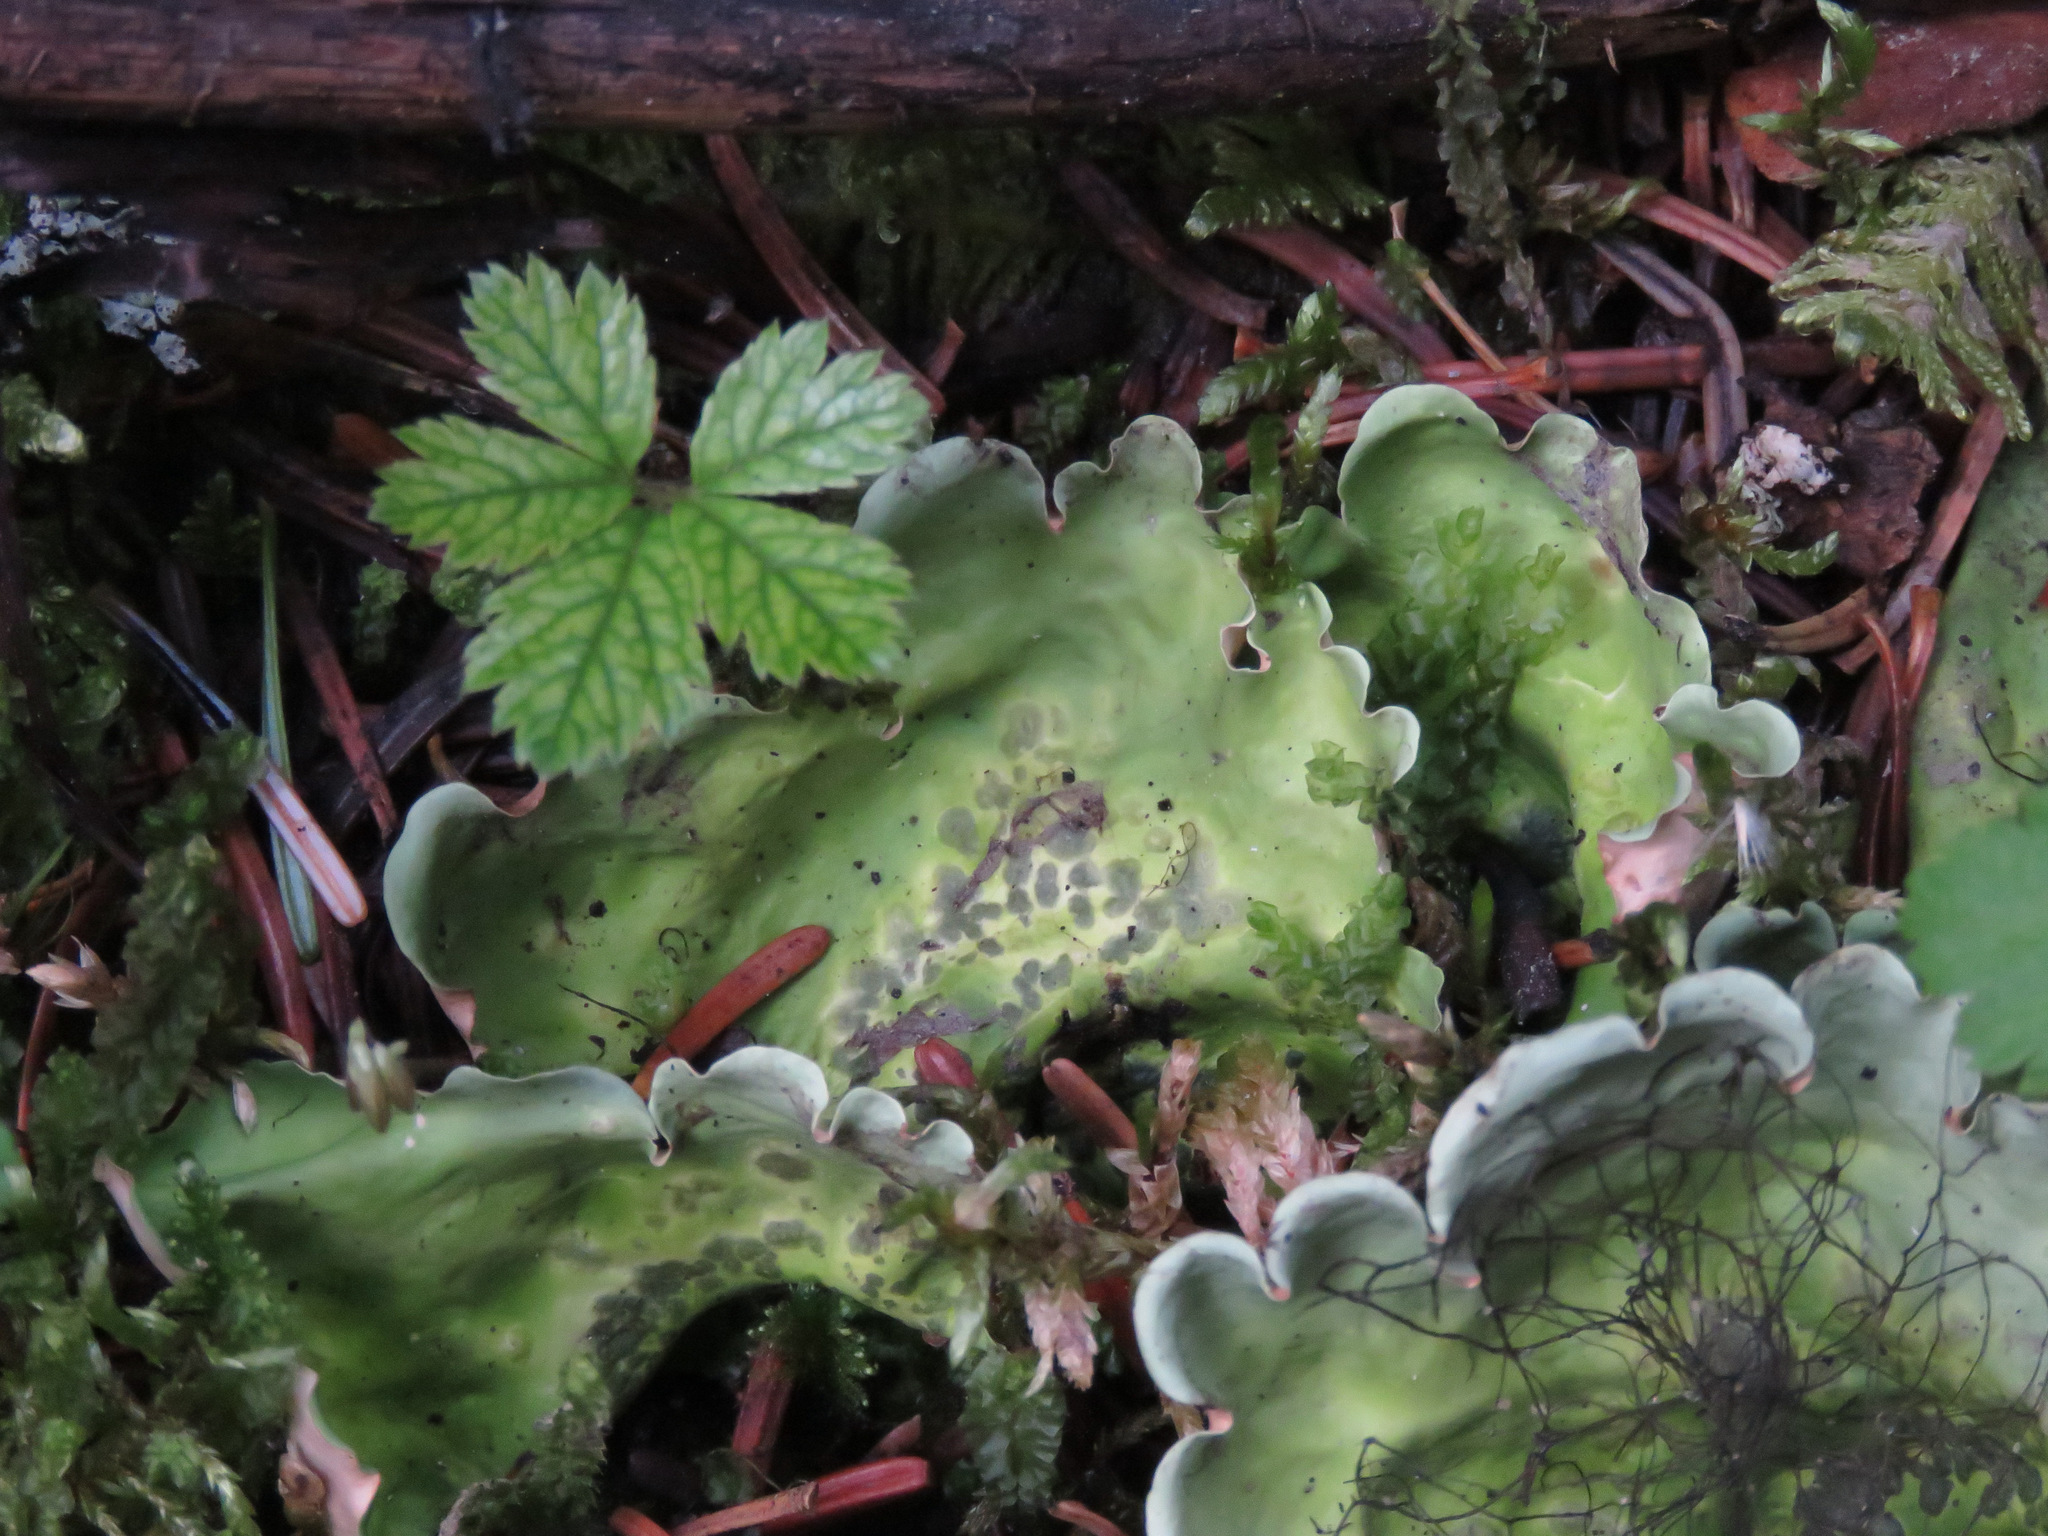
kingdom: Fungi
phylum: Ascomycota
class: Lecanoromycetes
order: Peltigerales
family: Nephromataceae
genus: Nephroma
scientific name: Nephroma arcticum
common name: Arctic kidney-lichen
